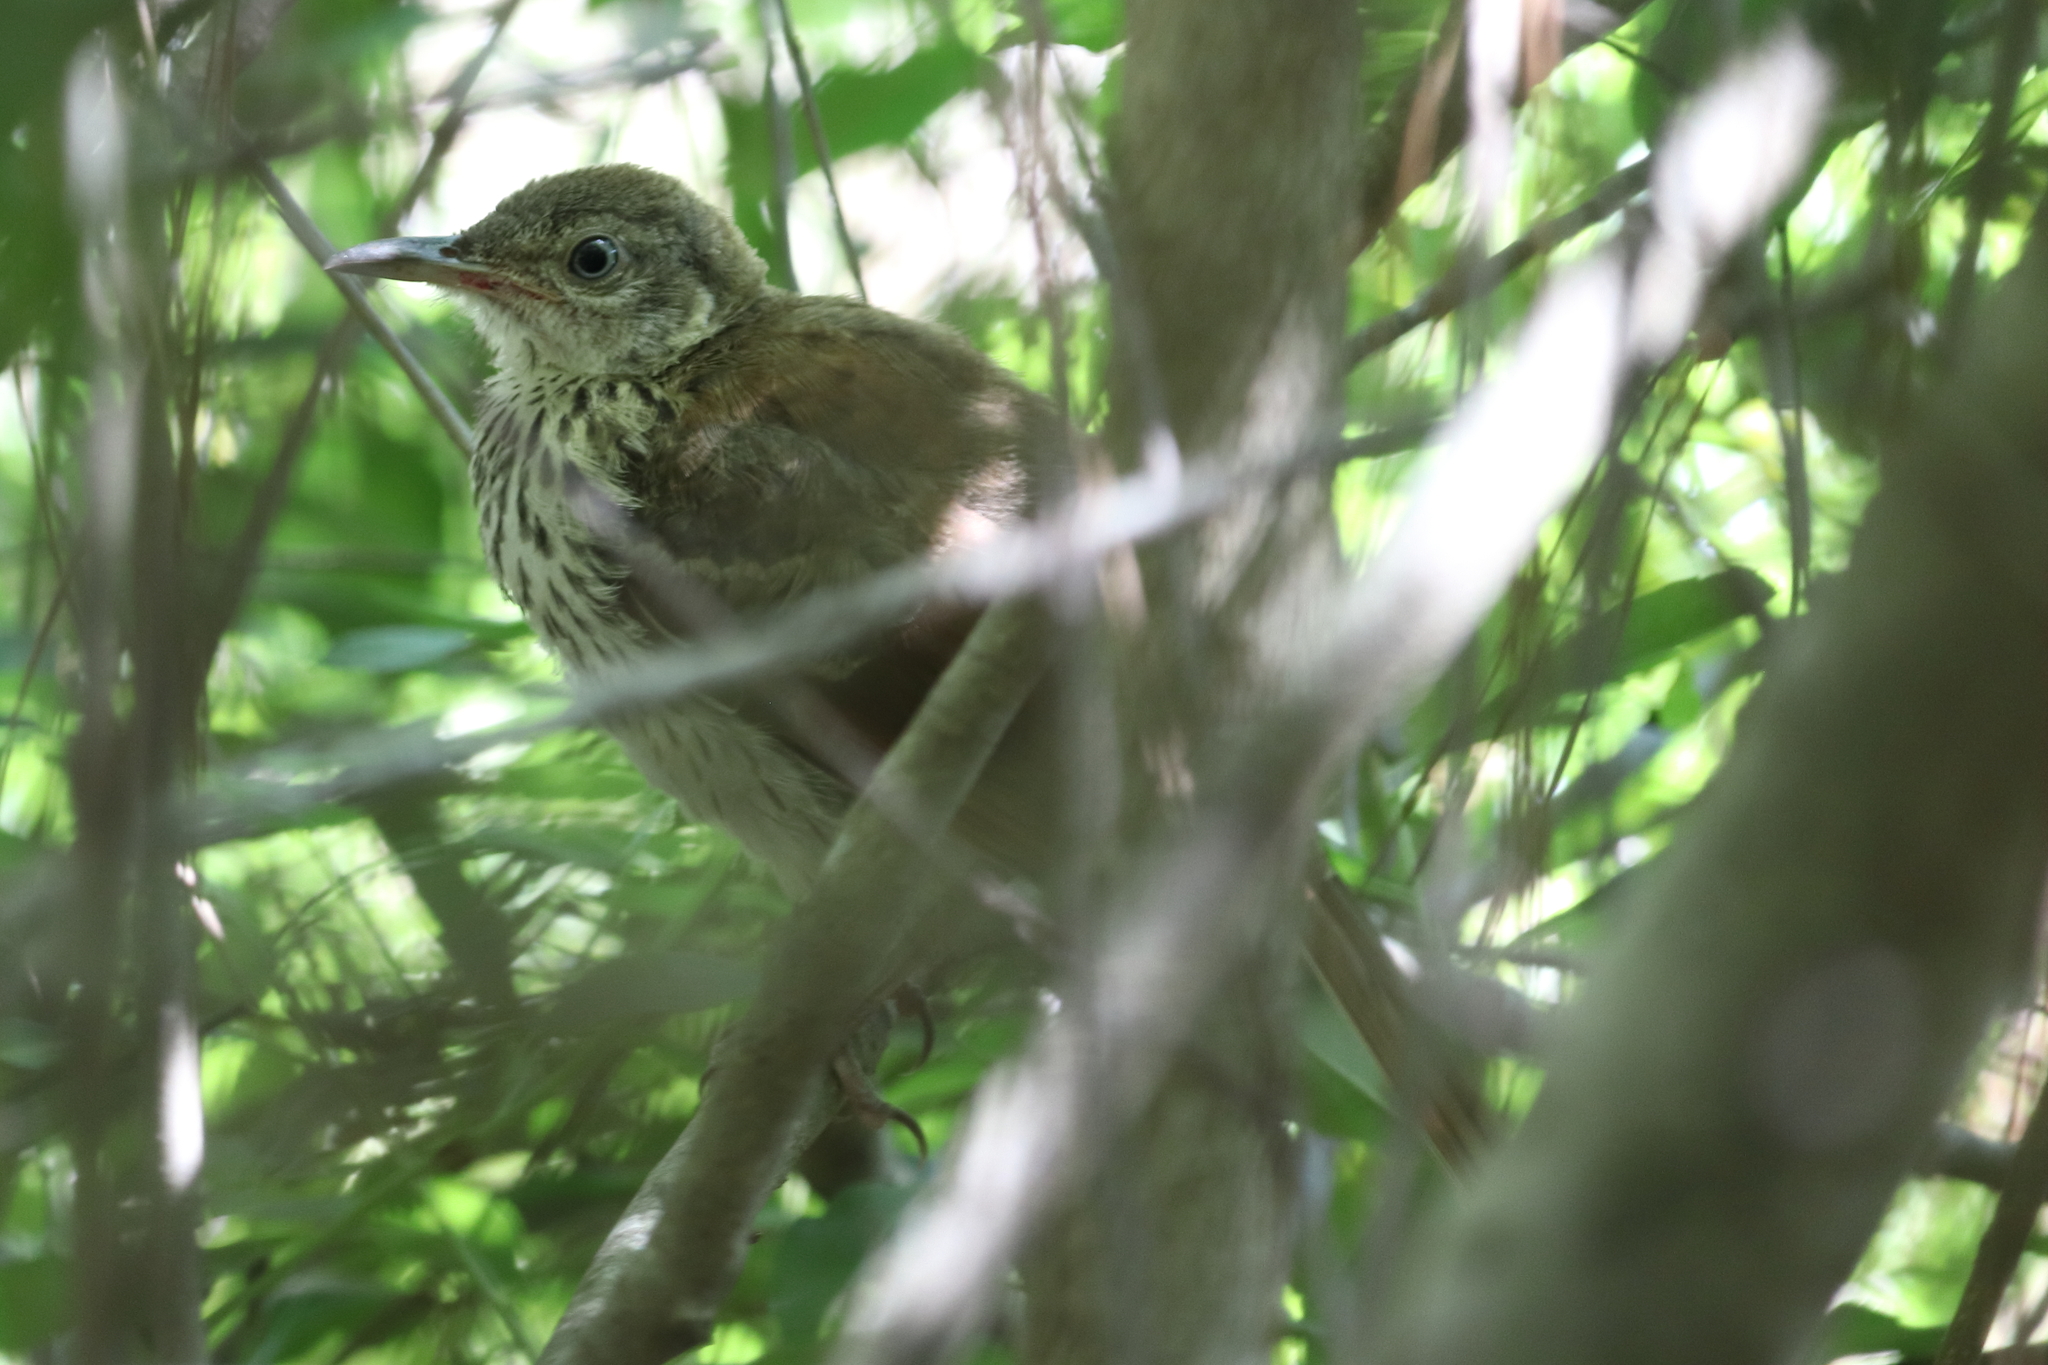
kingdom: Animalia
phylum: Chordata
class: Aves
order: Passeriformes
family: Mimidae
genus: Toxostoma
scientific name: Toxostoma rufum
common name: Brown thrasher
